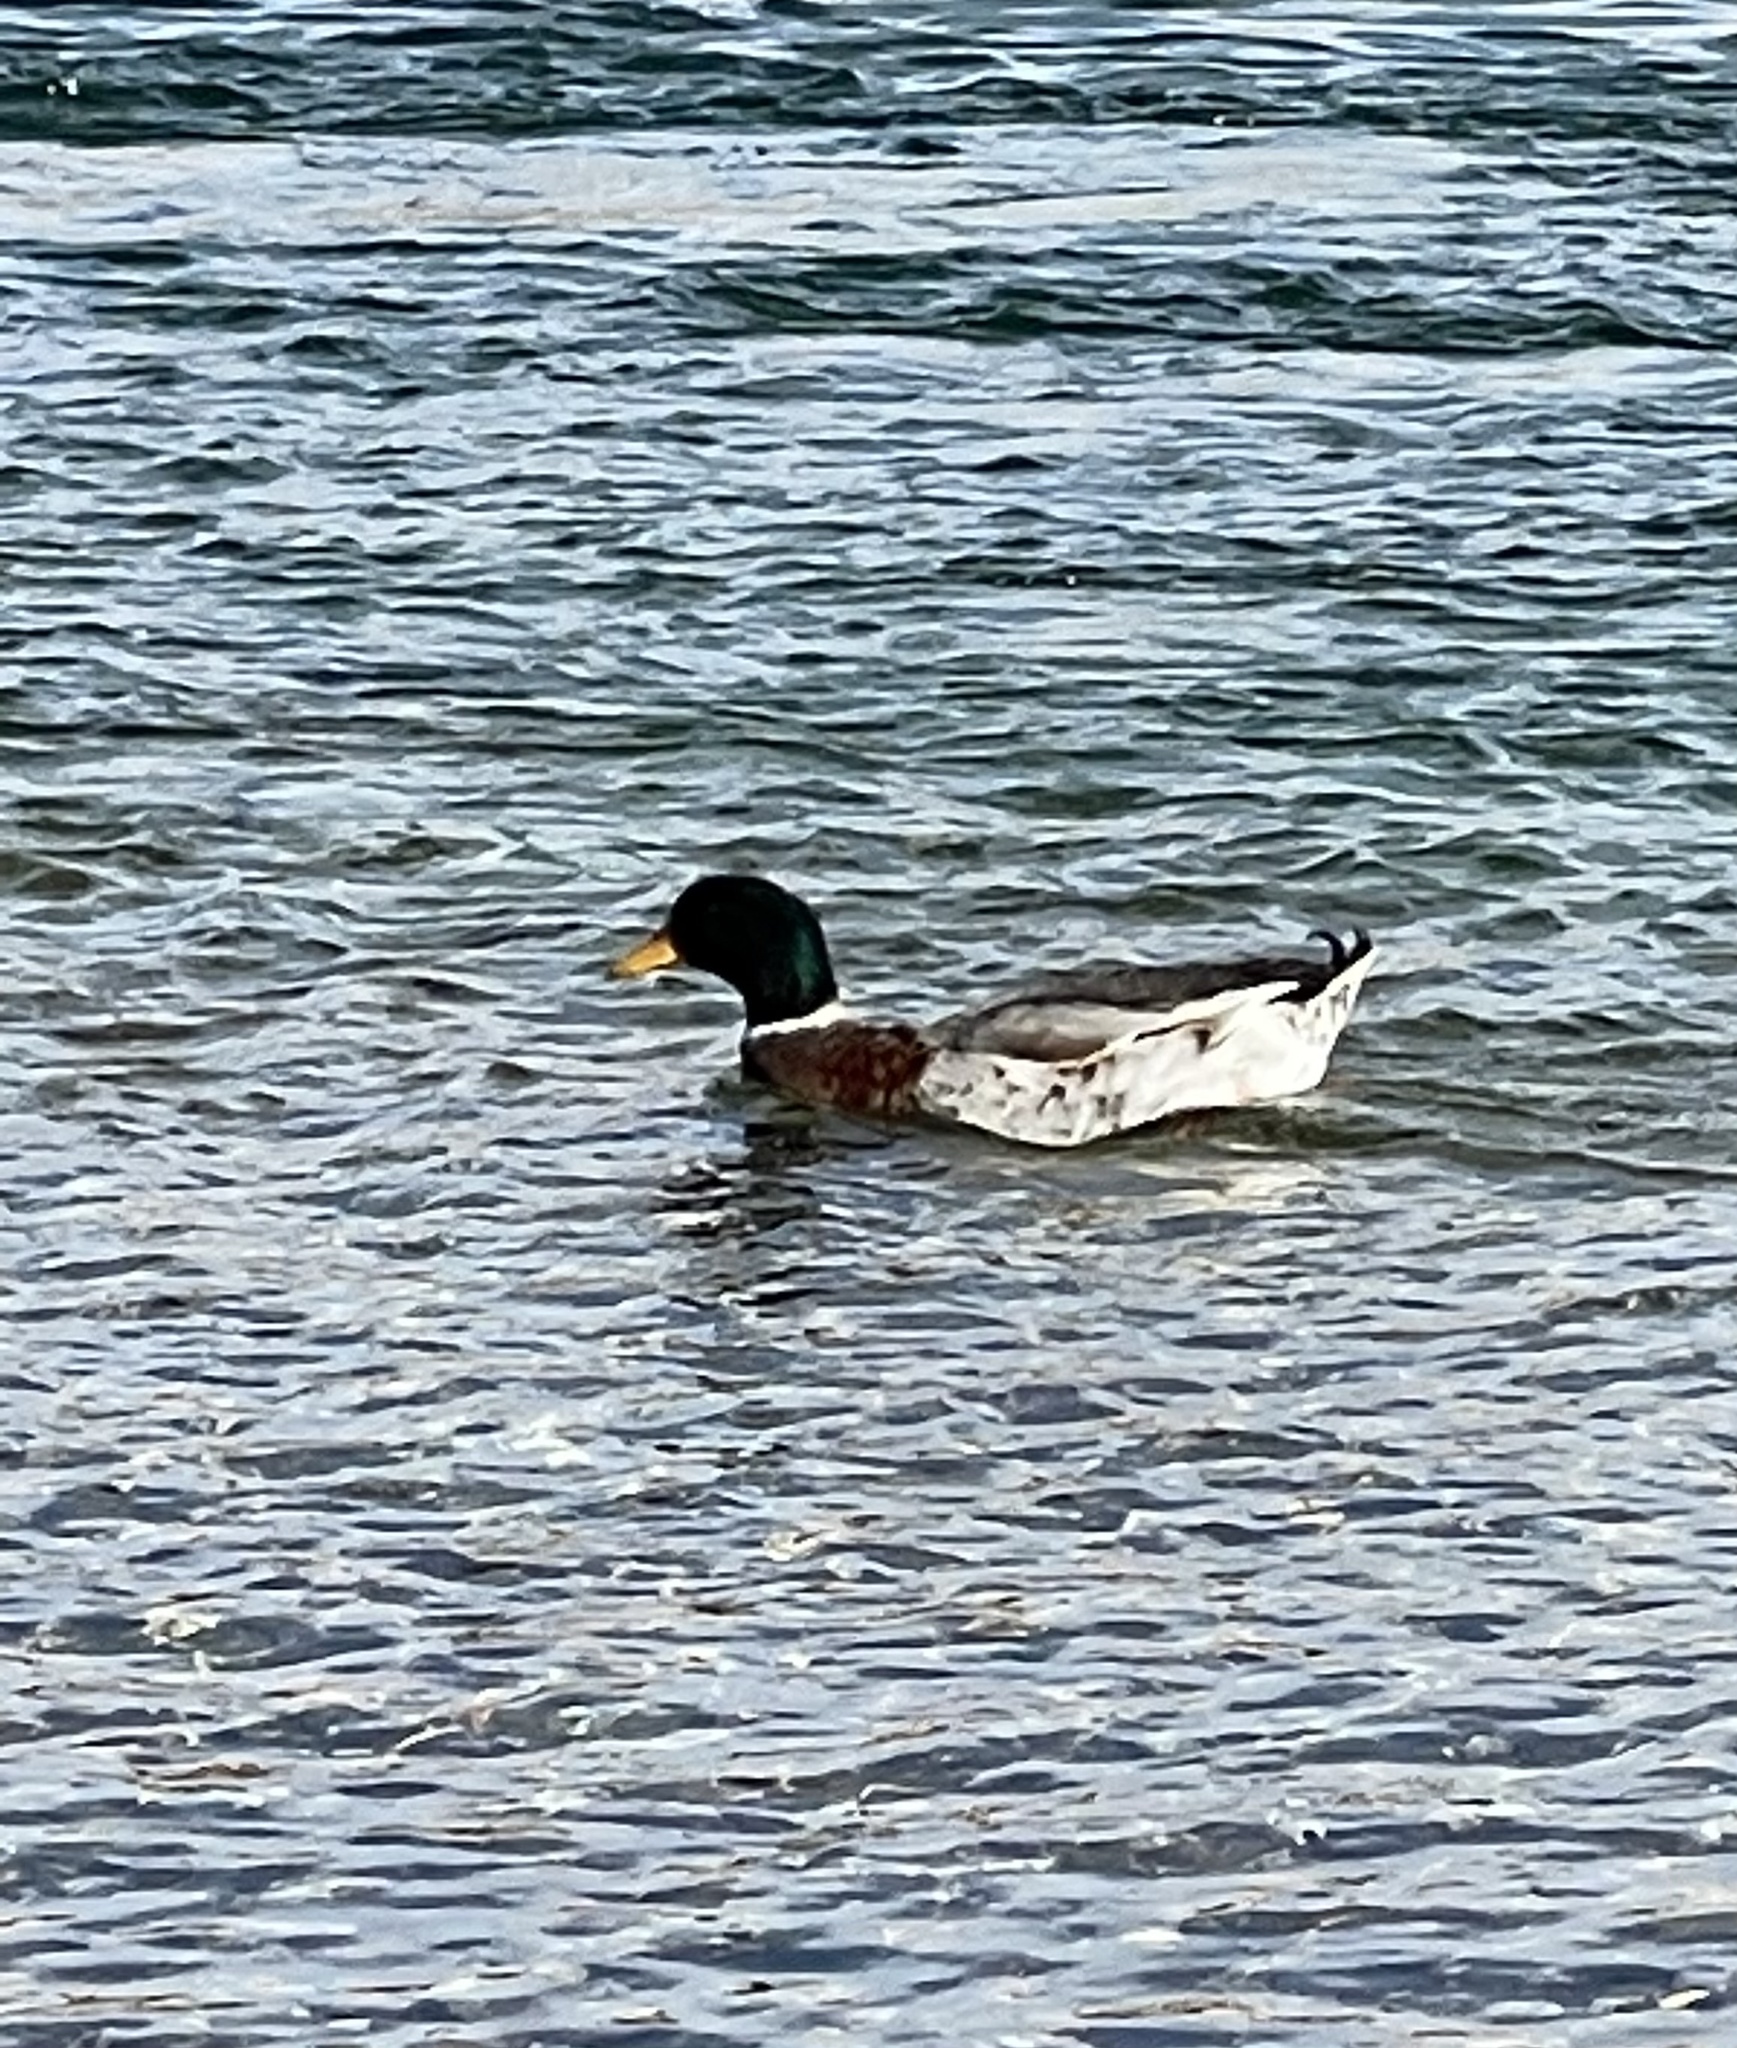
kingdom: Animalia
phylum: Chordata
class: Aves
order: Anseriformes
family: Anatidae
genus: Anas
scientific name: Anas platyrhynchos
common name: Mallard
